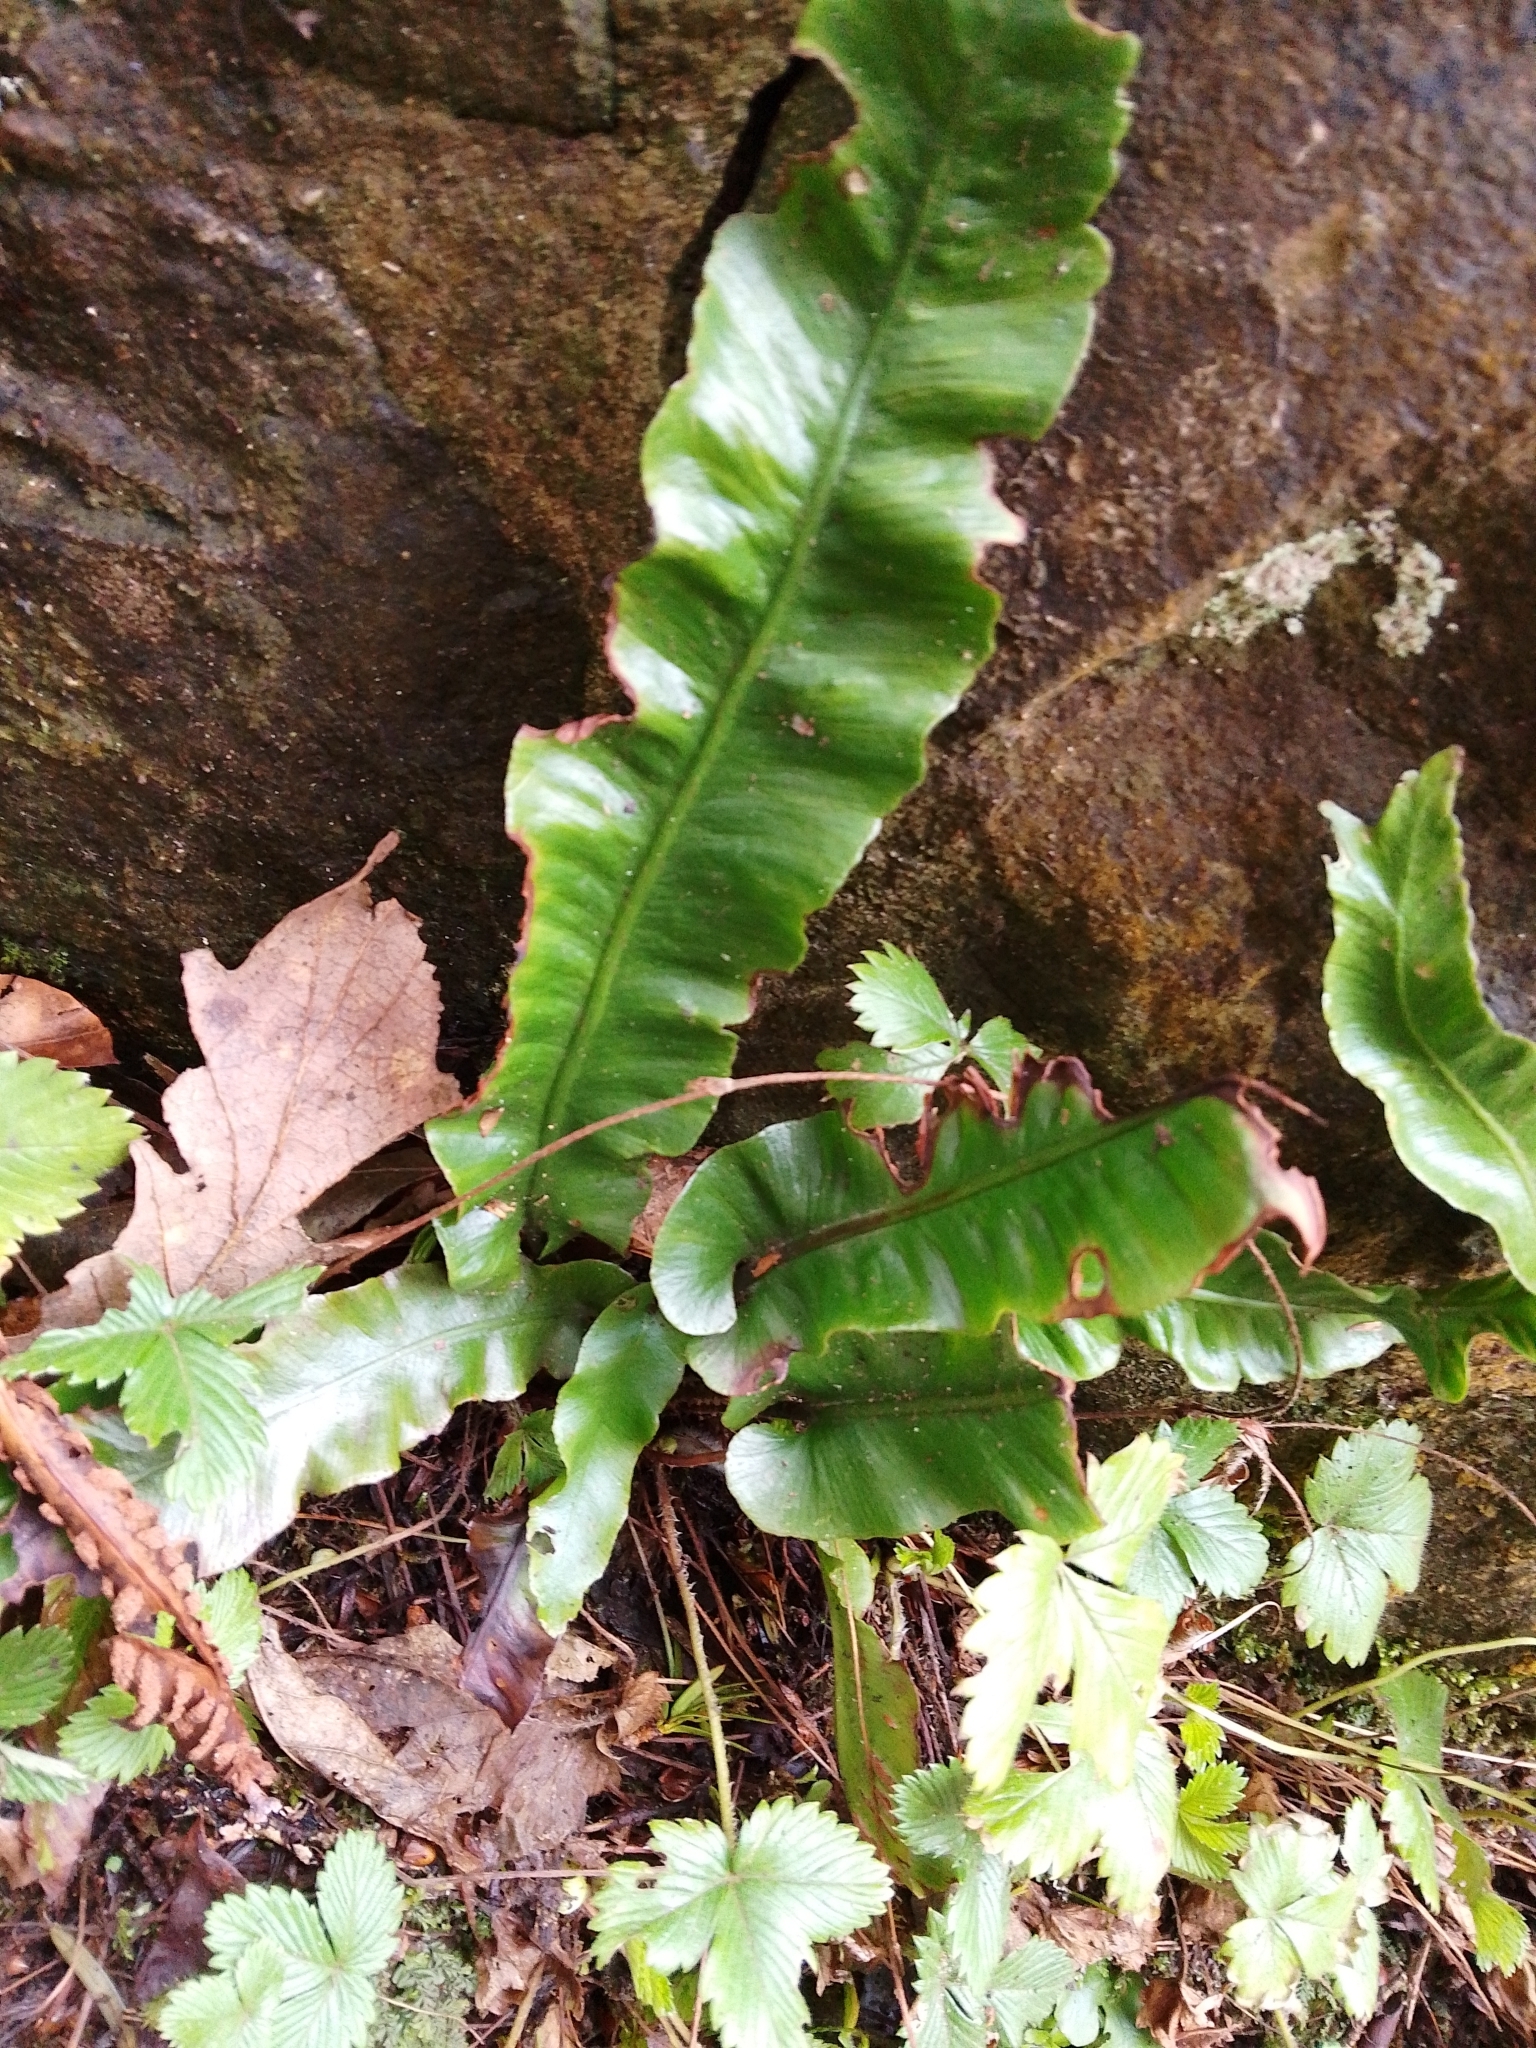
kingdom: Plantae
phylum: Tracheophyta
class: Polypodiopsida
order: Polypodiales
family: Aspleniaceae
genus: Asplenium
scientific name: Asplenium scolopendrium
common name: Hart's-tongue fern
